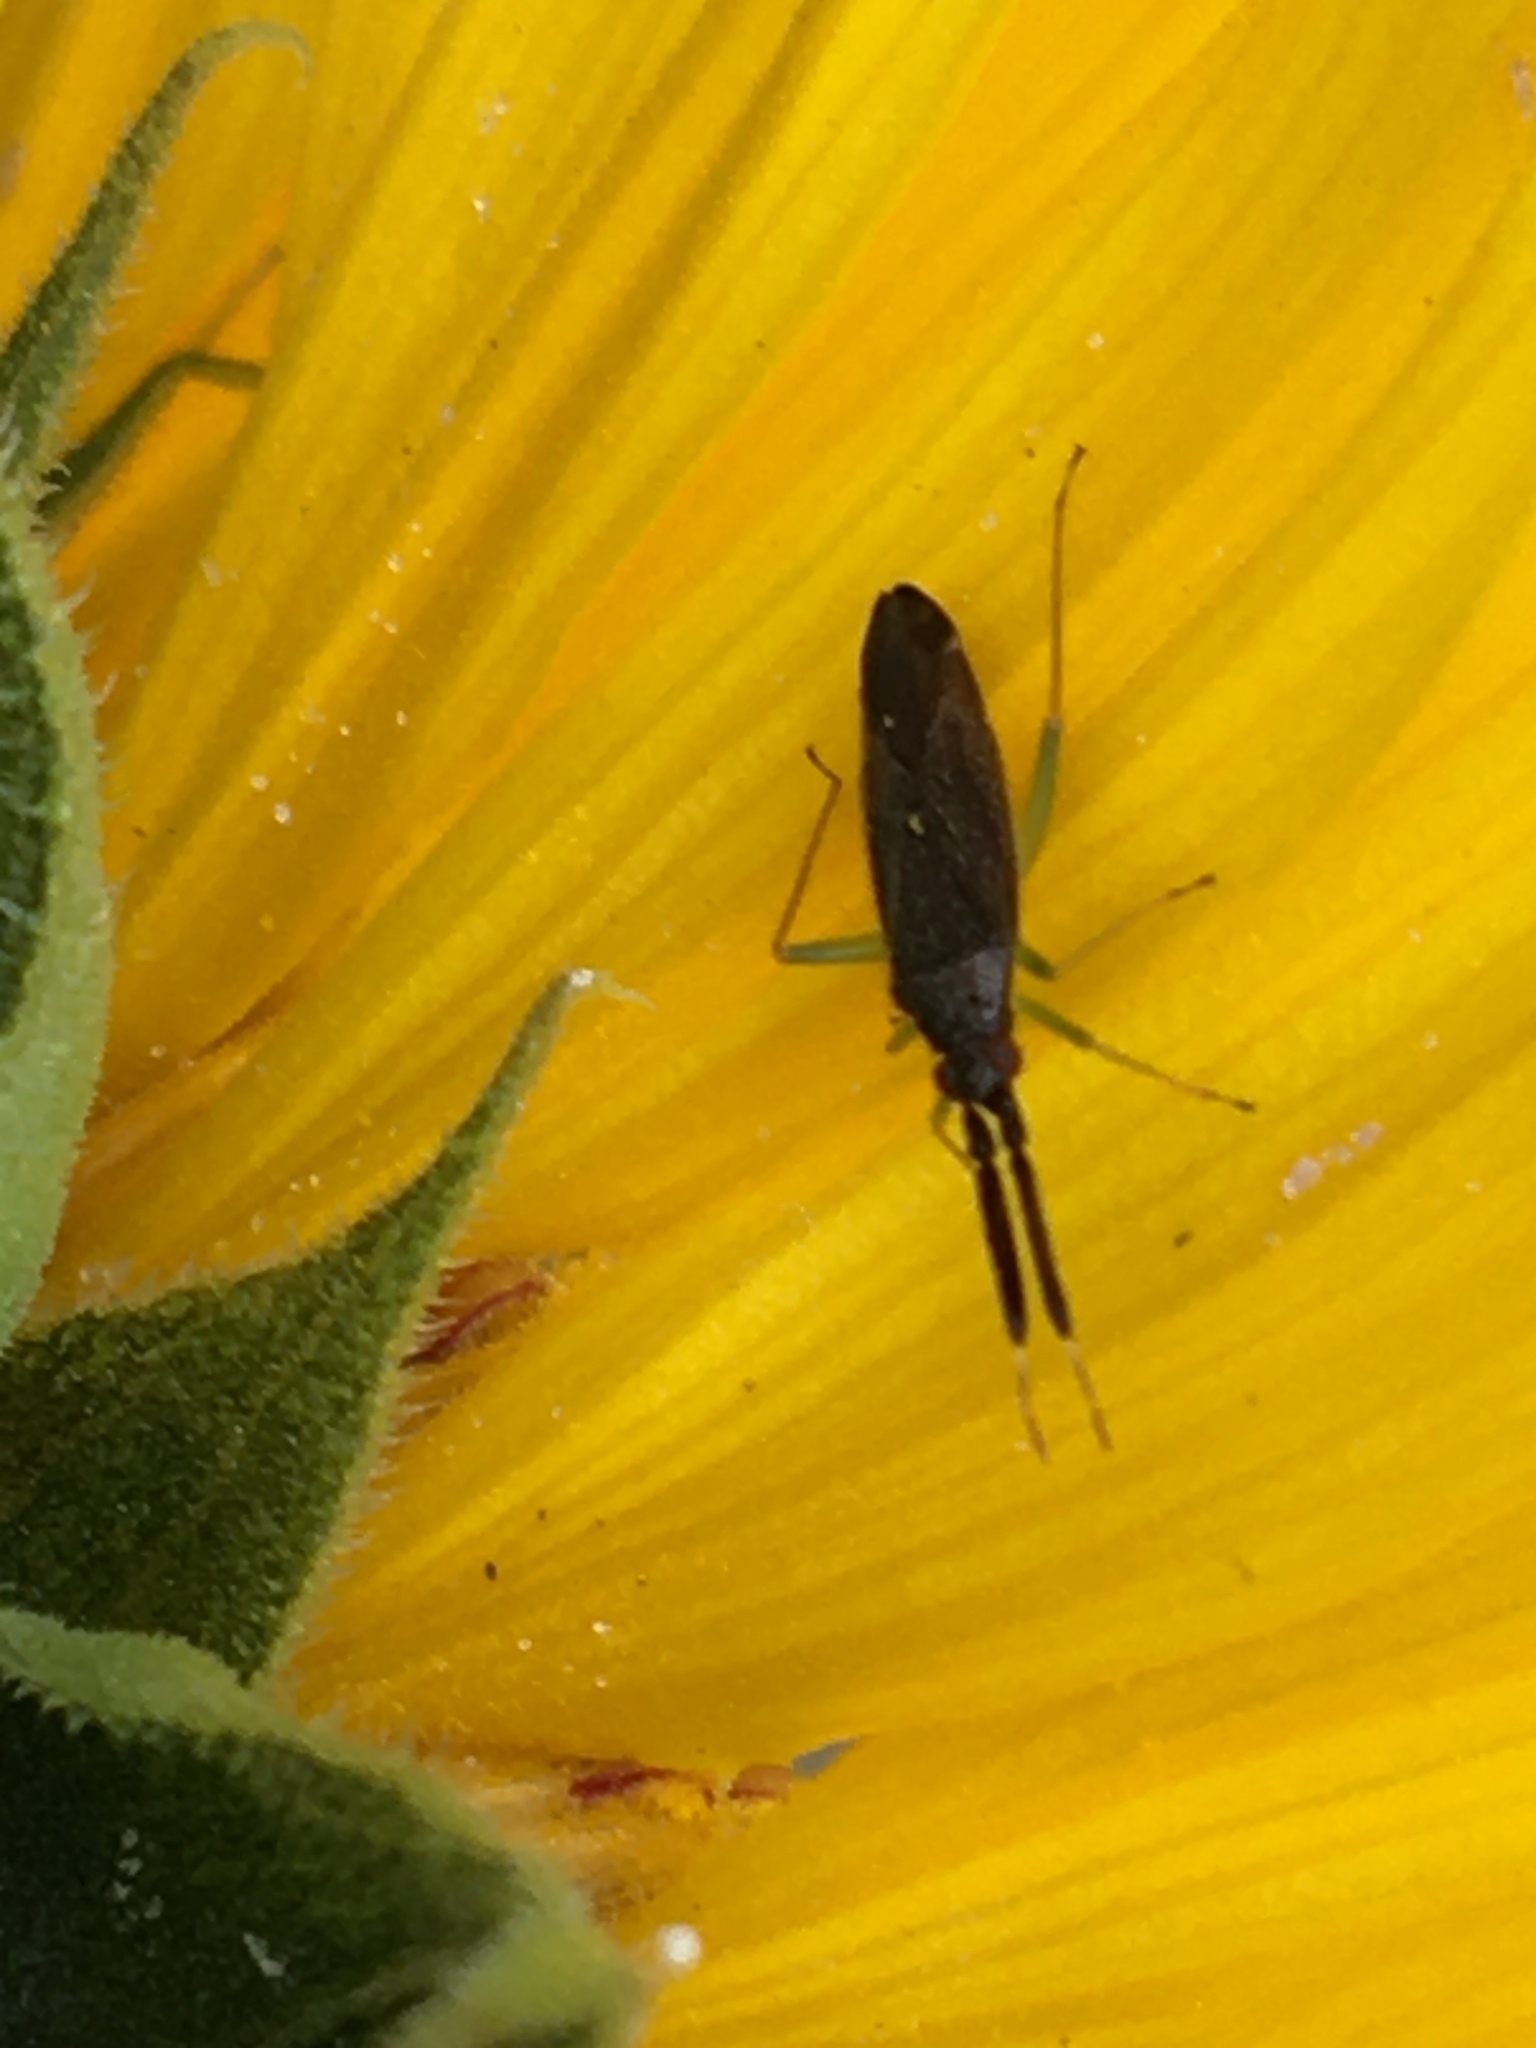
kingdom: Animalia
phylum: Arthropoda
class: Insecta
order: Hemiptera
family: Miridae
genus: Heterotoma
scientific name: Heterotoma planicornis
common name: Plant bug
